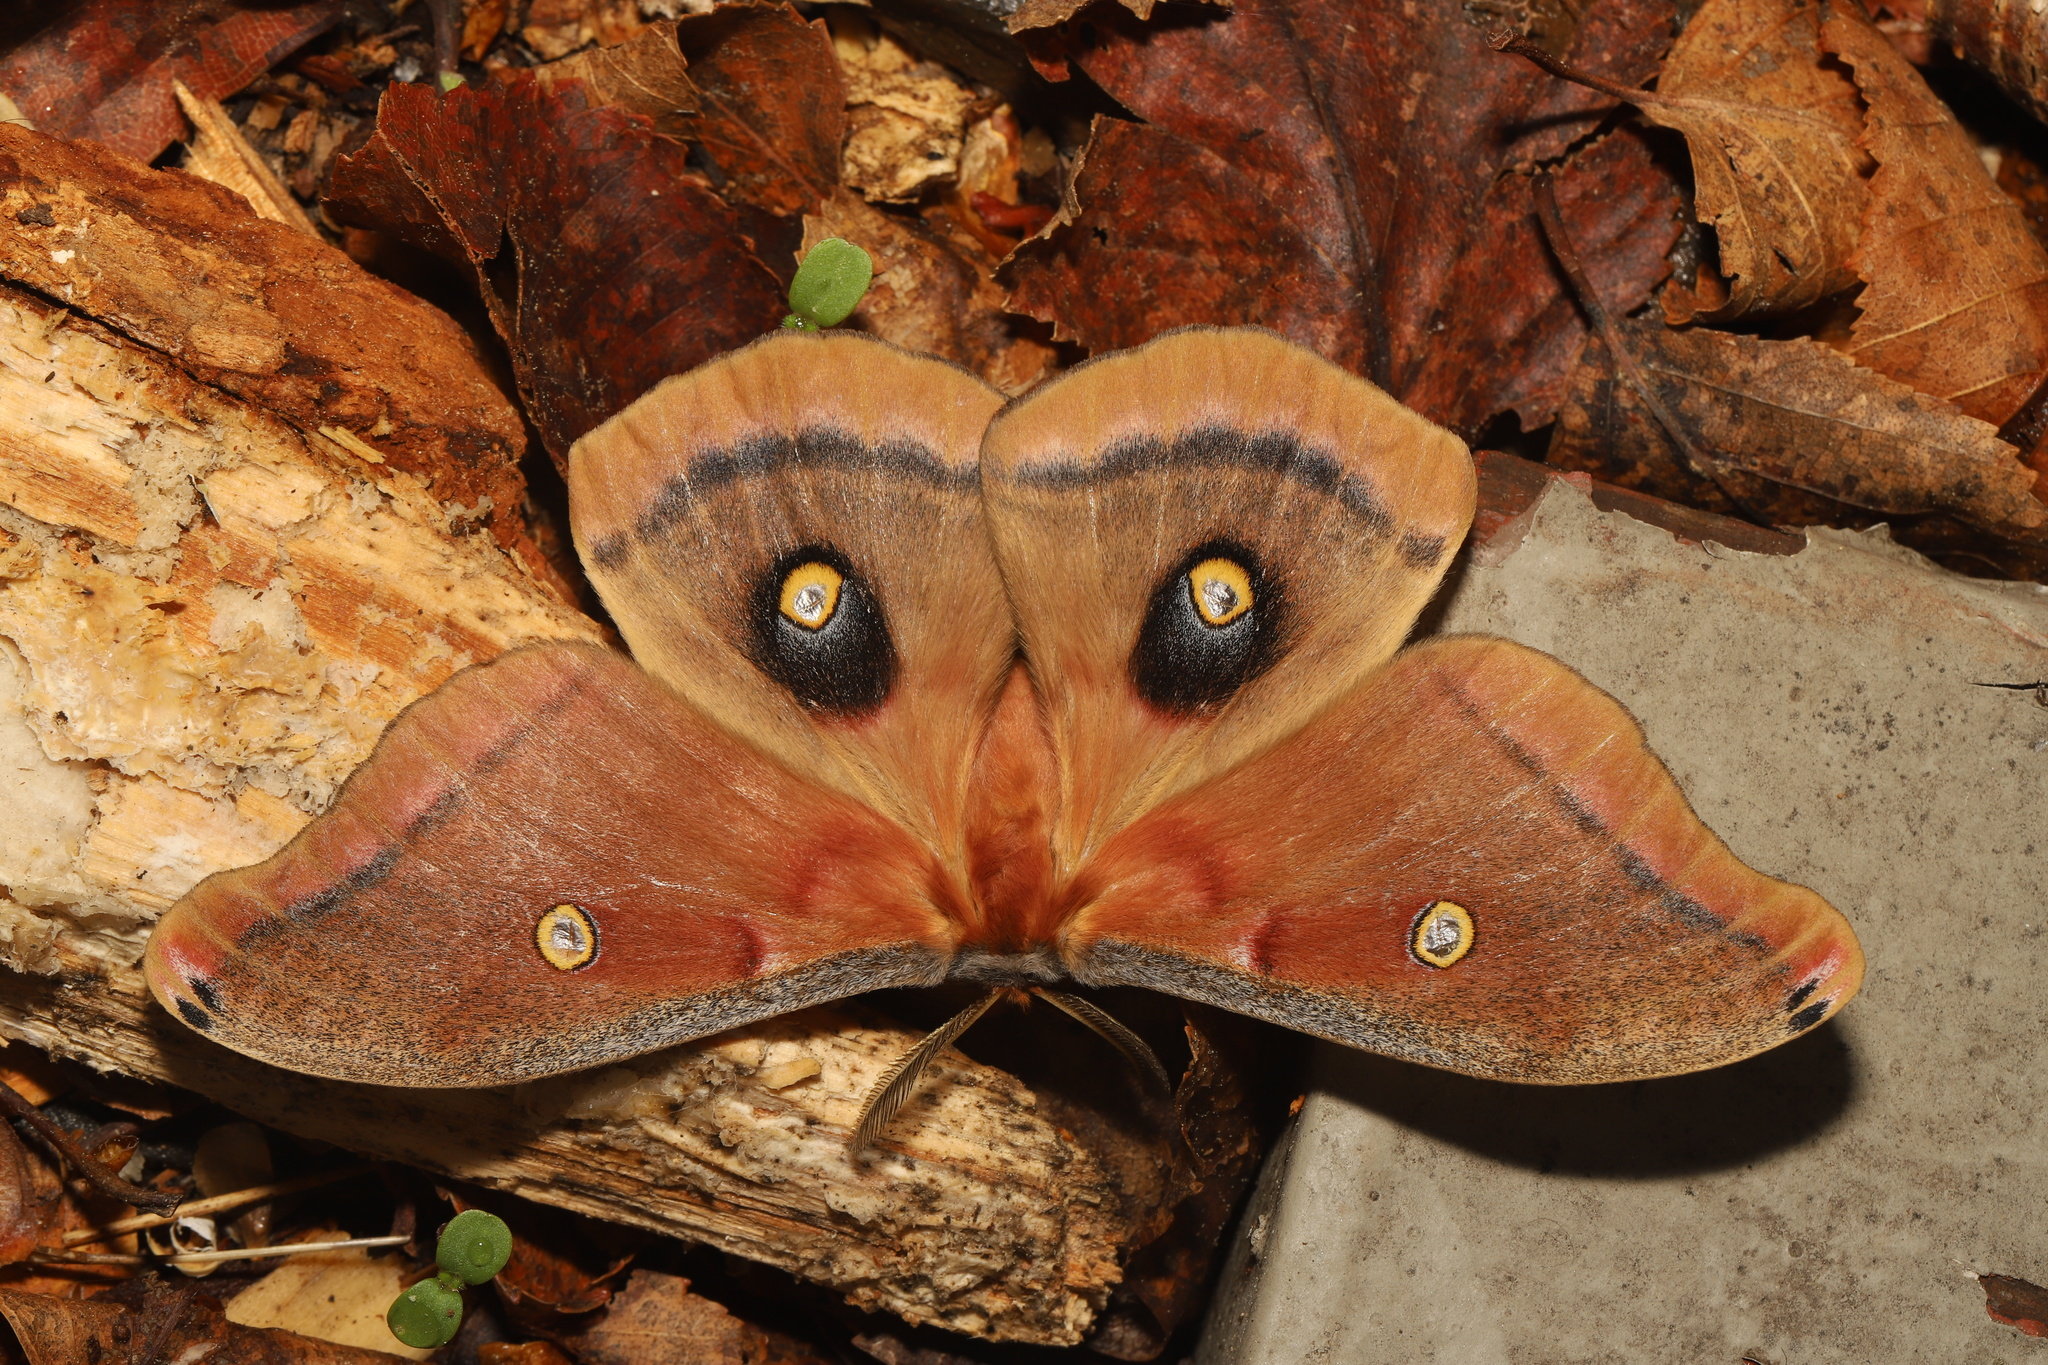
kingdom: Animalia
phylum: Arthropoda
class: Insecta
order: Lepidoptera
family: Saturniidae
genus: Antheraea
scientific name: Antheraea polyphemus
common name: Polyphemus moth
